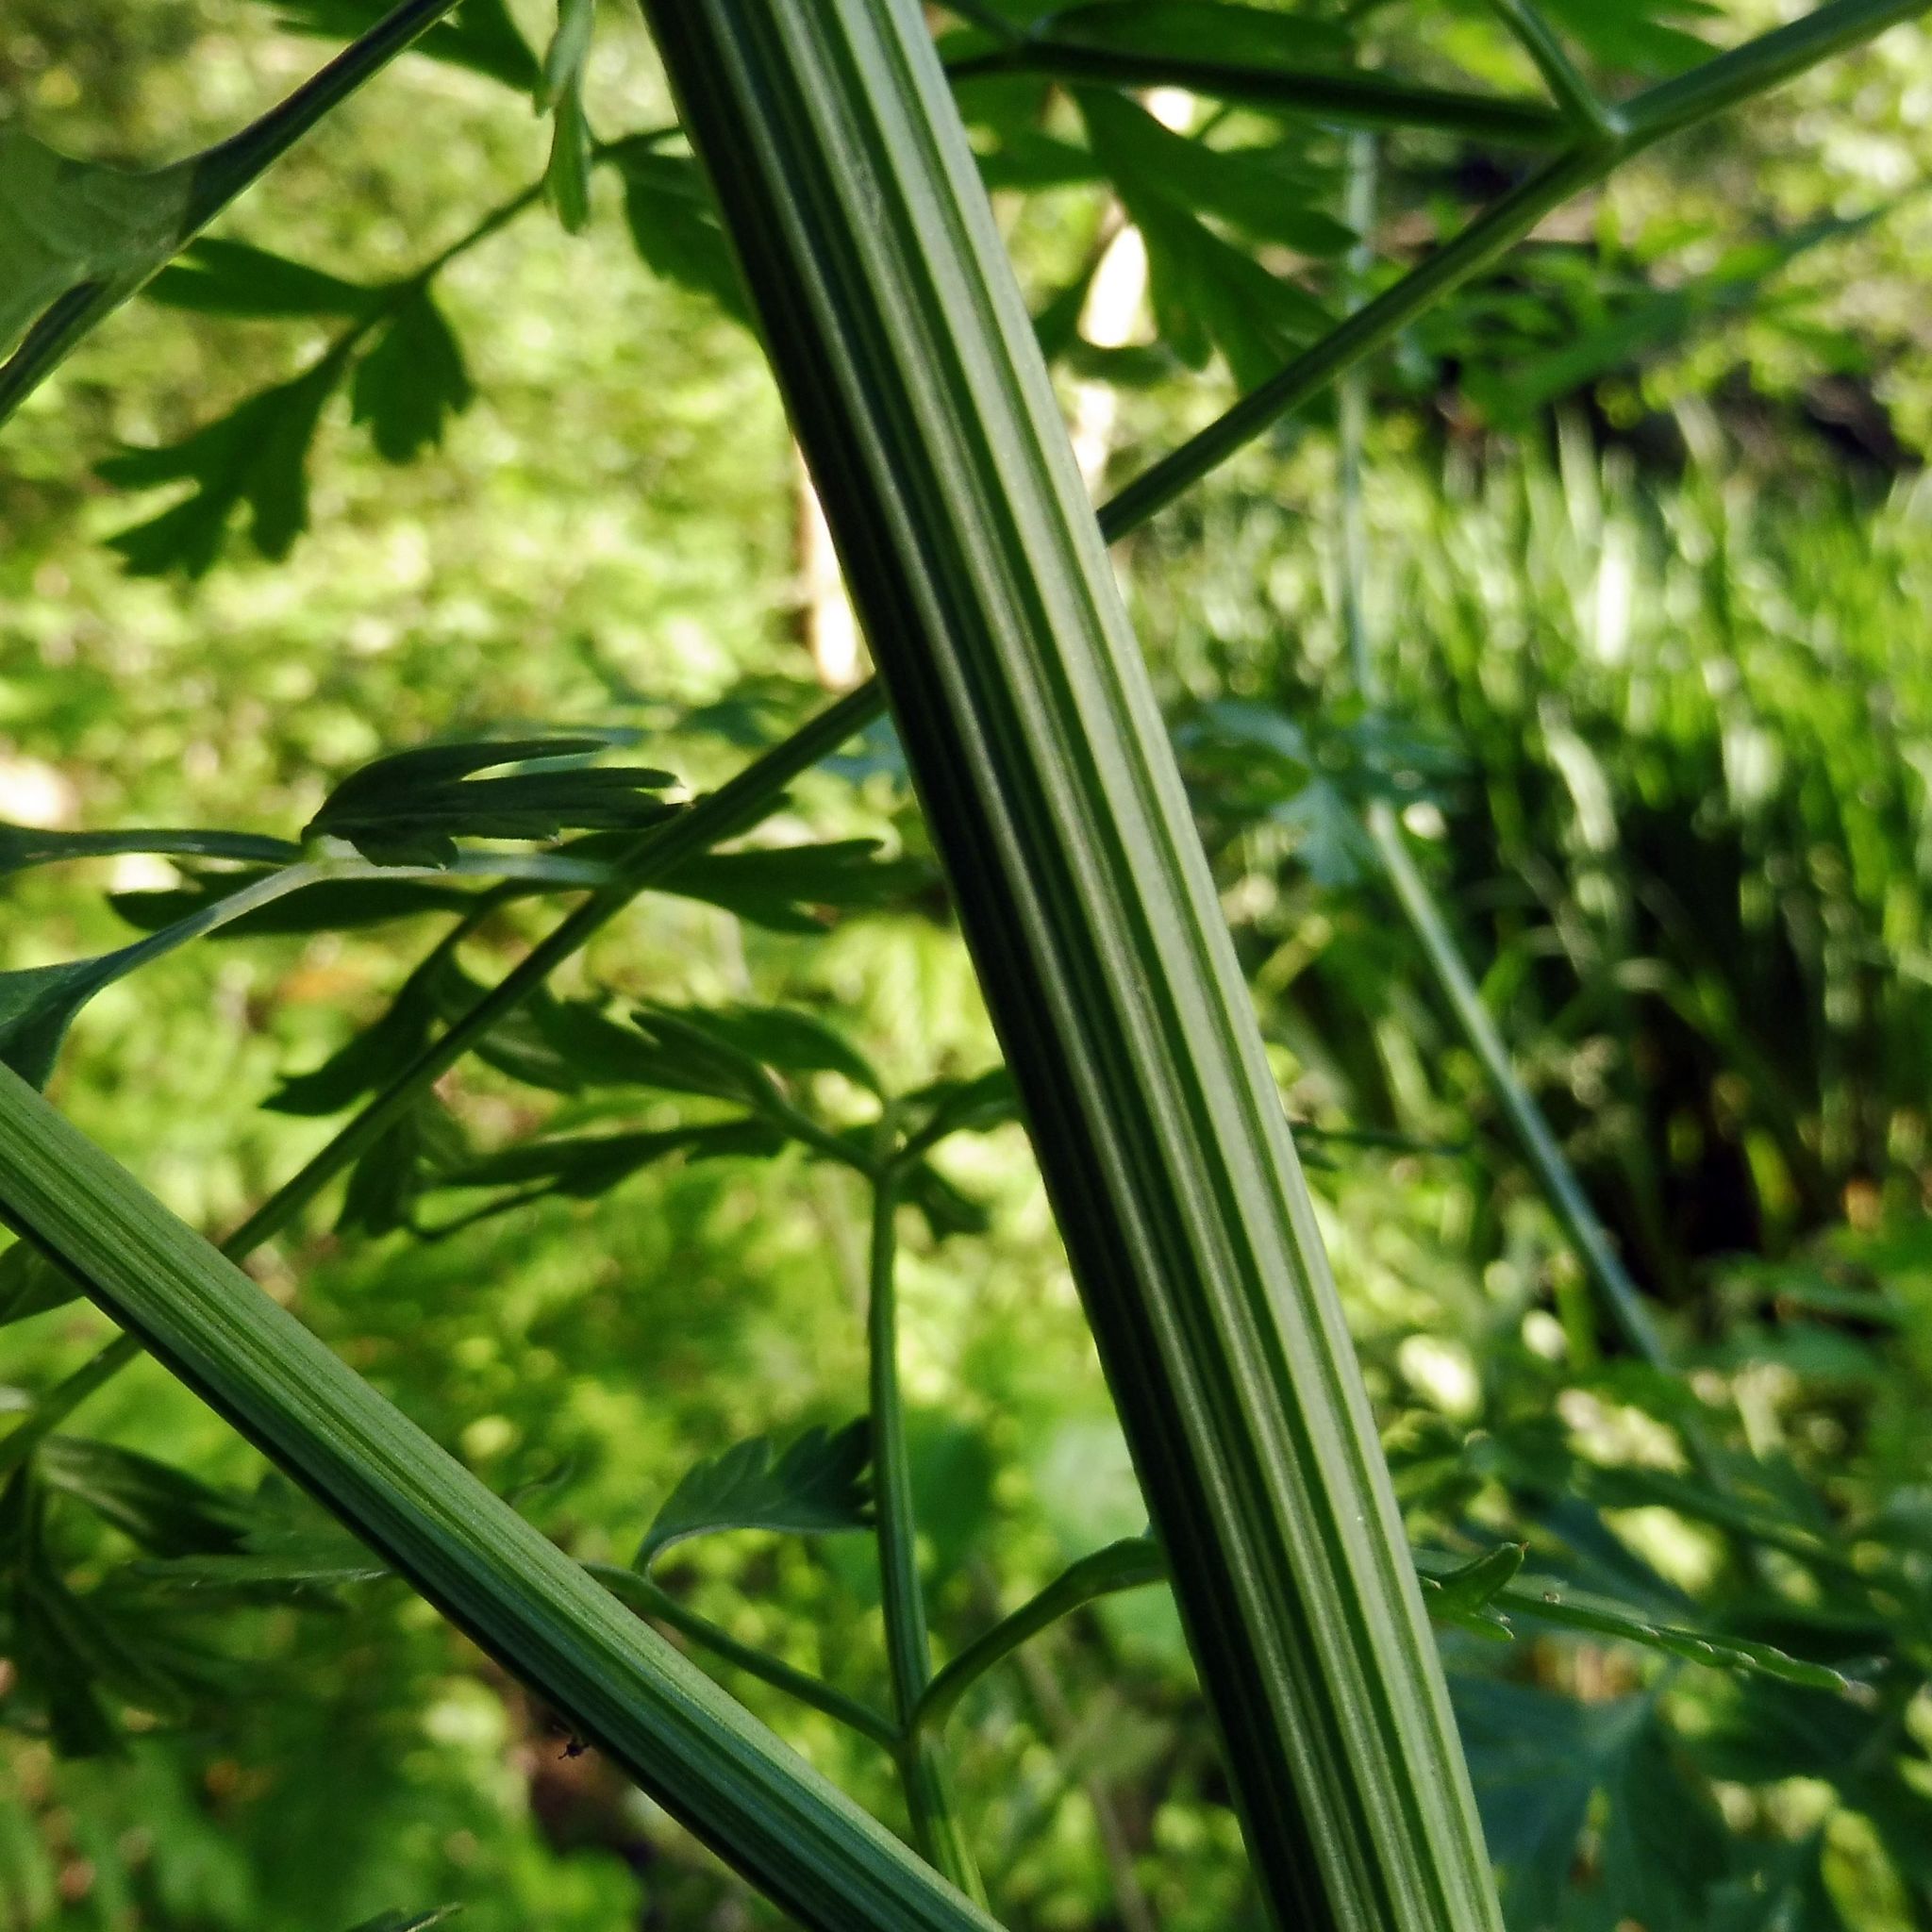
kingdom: Plantae
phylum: Tracheophyta
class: Magnoliopsida
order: Apiales
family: Apiaceae
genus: Oenanthe
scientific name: Oenanthe crocata
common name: Hemlock water-dropwort
